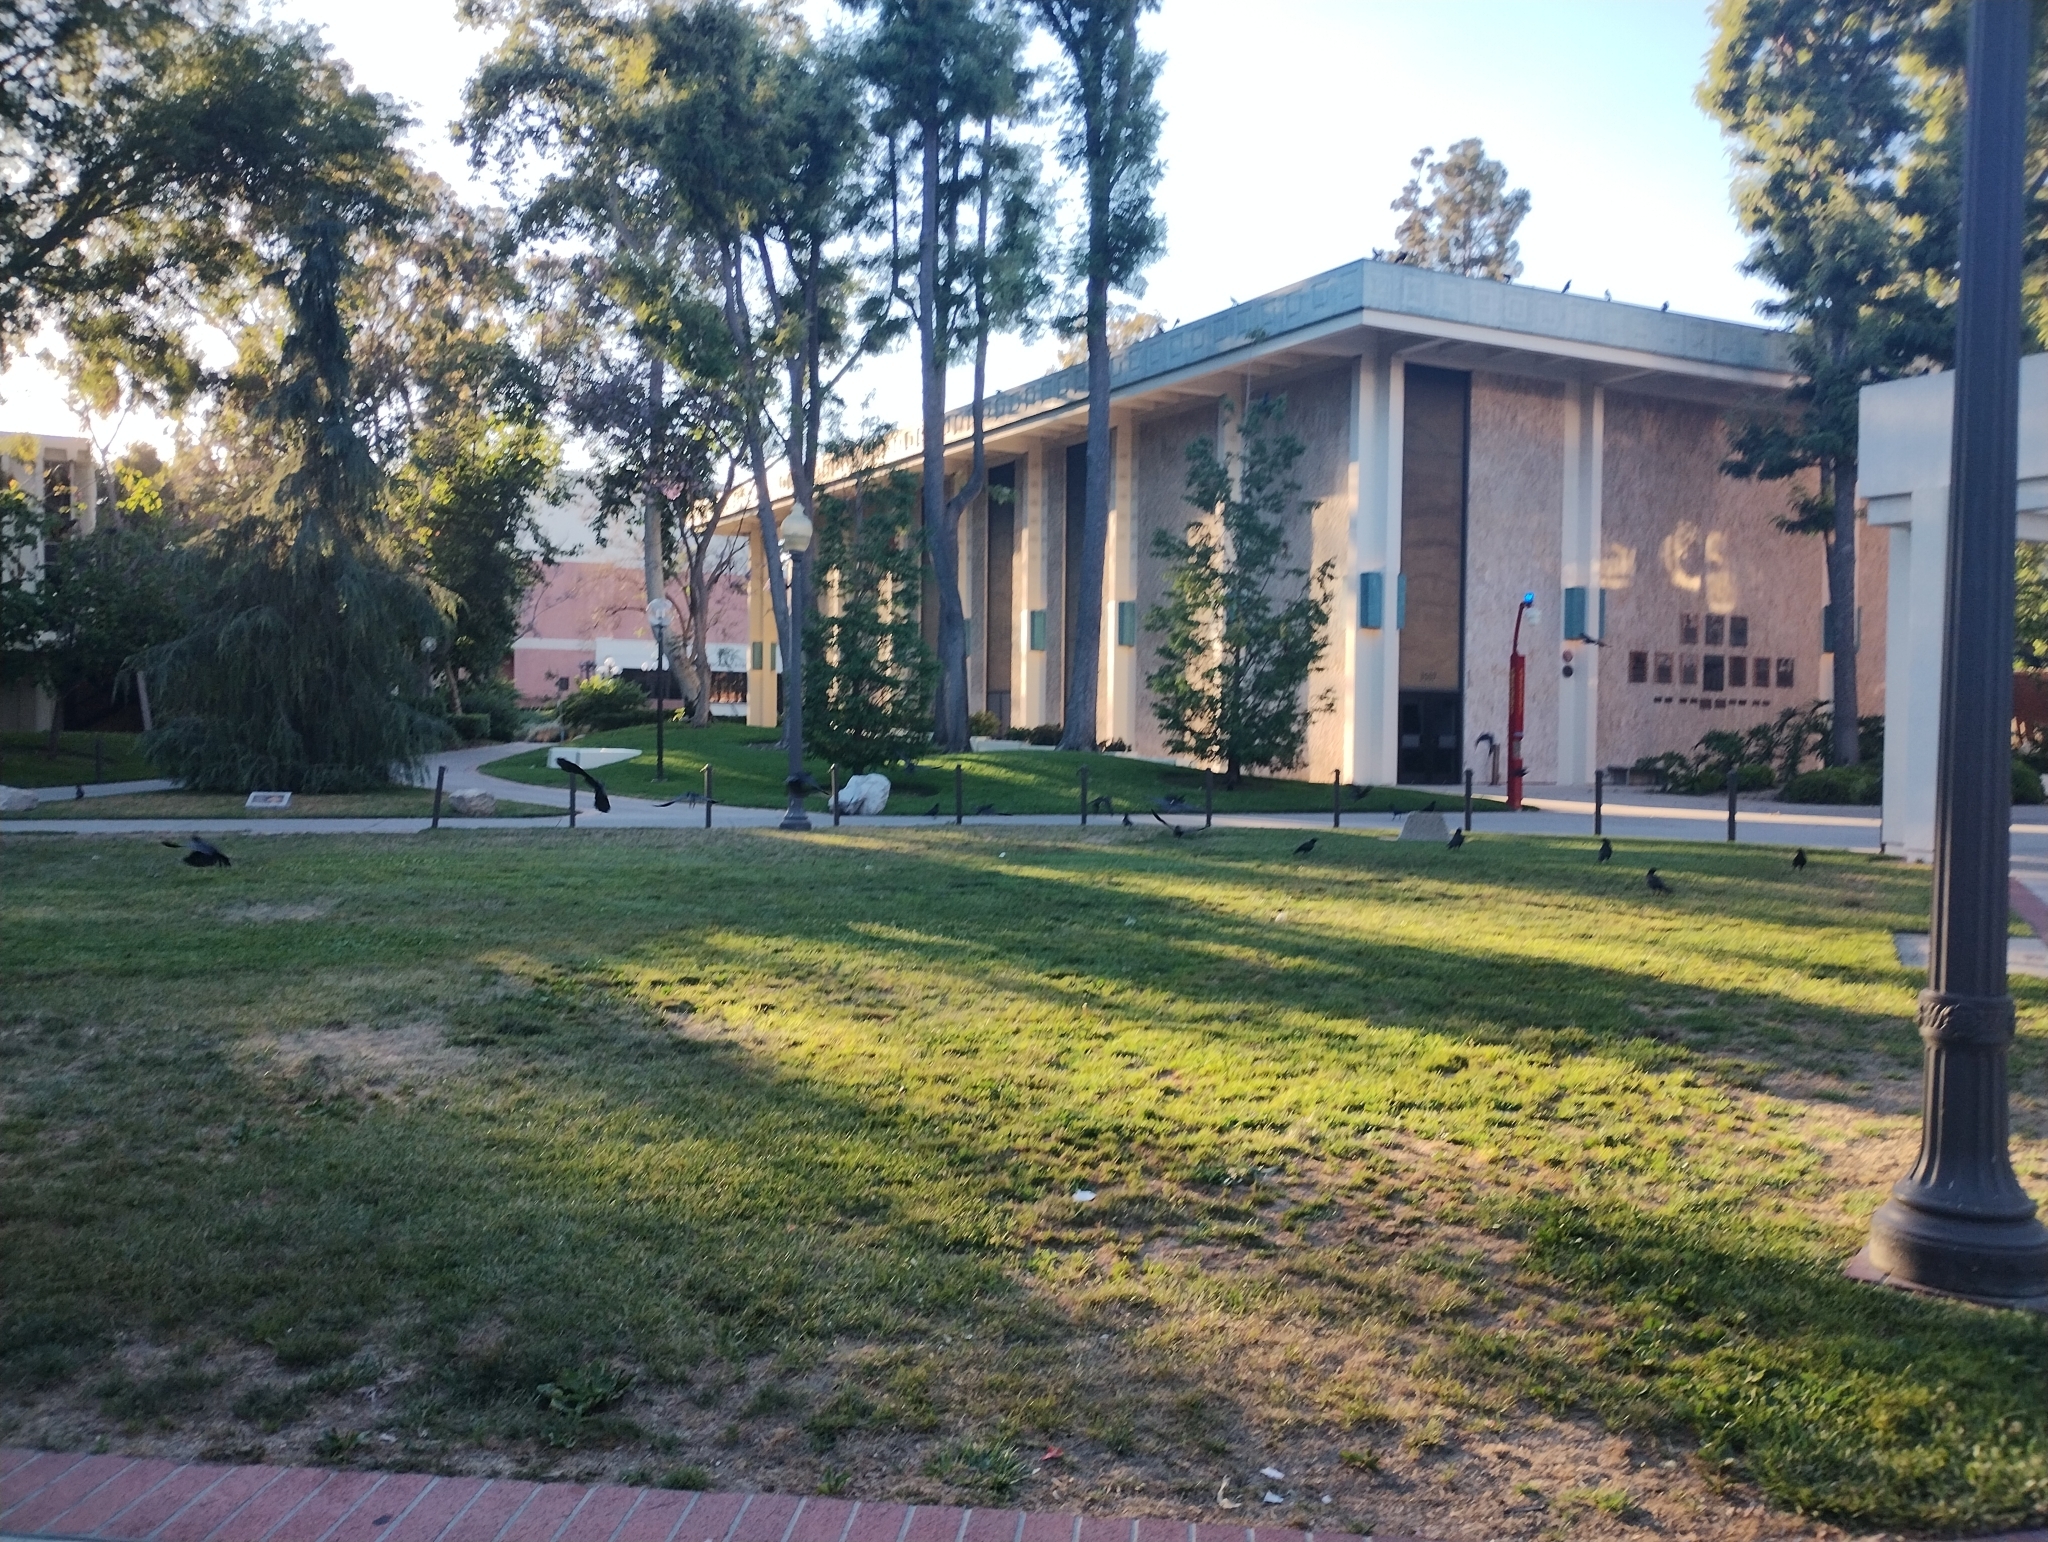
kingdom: Animalia
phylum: Chordata
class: Aves
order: Passeriformes
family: Corvidae
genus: Corvus
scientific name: Corvus brachyrhynchos
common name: American crow
